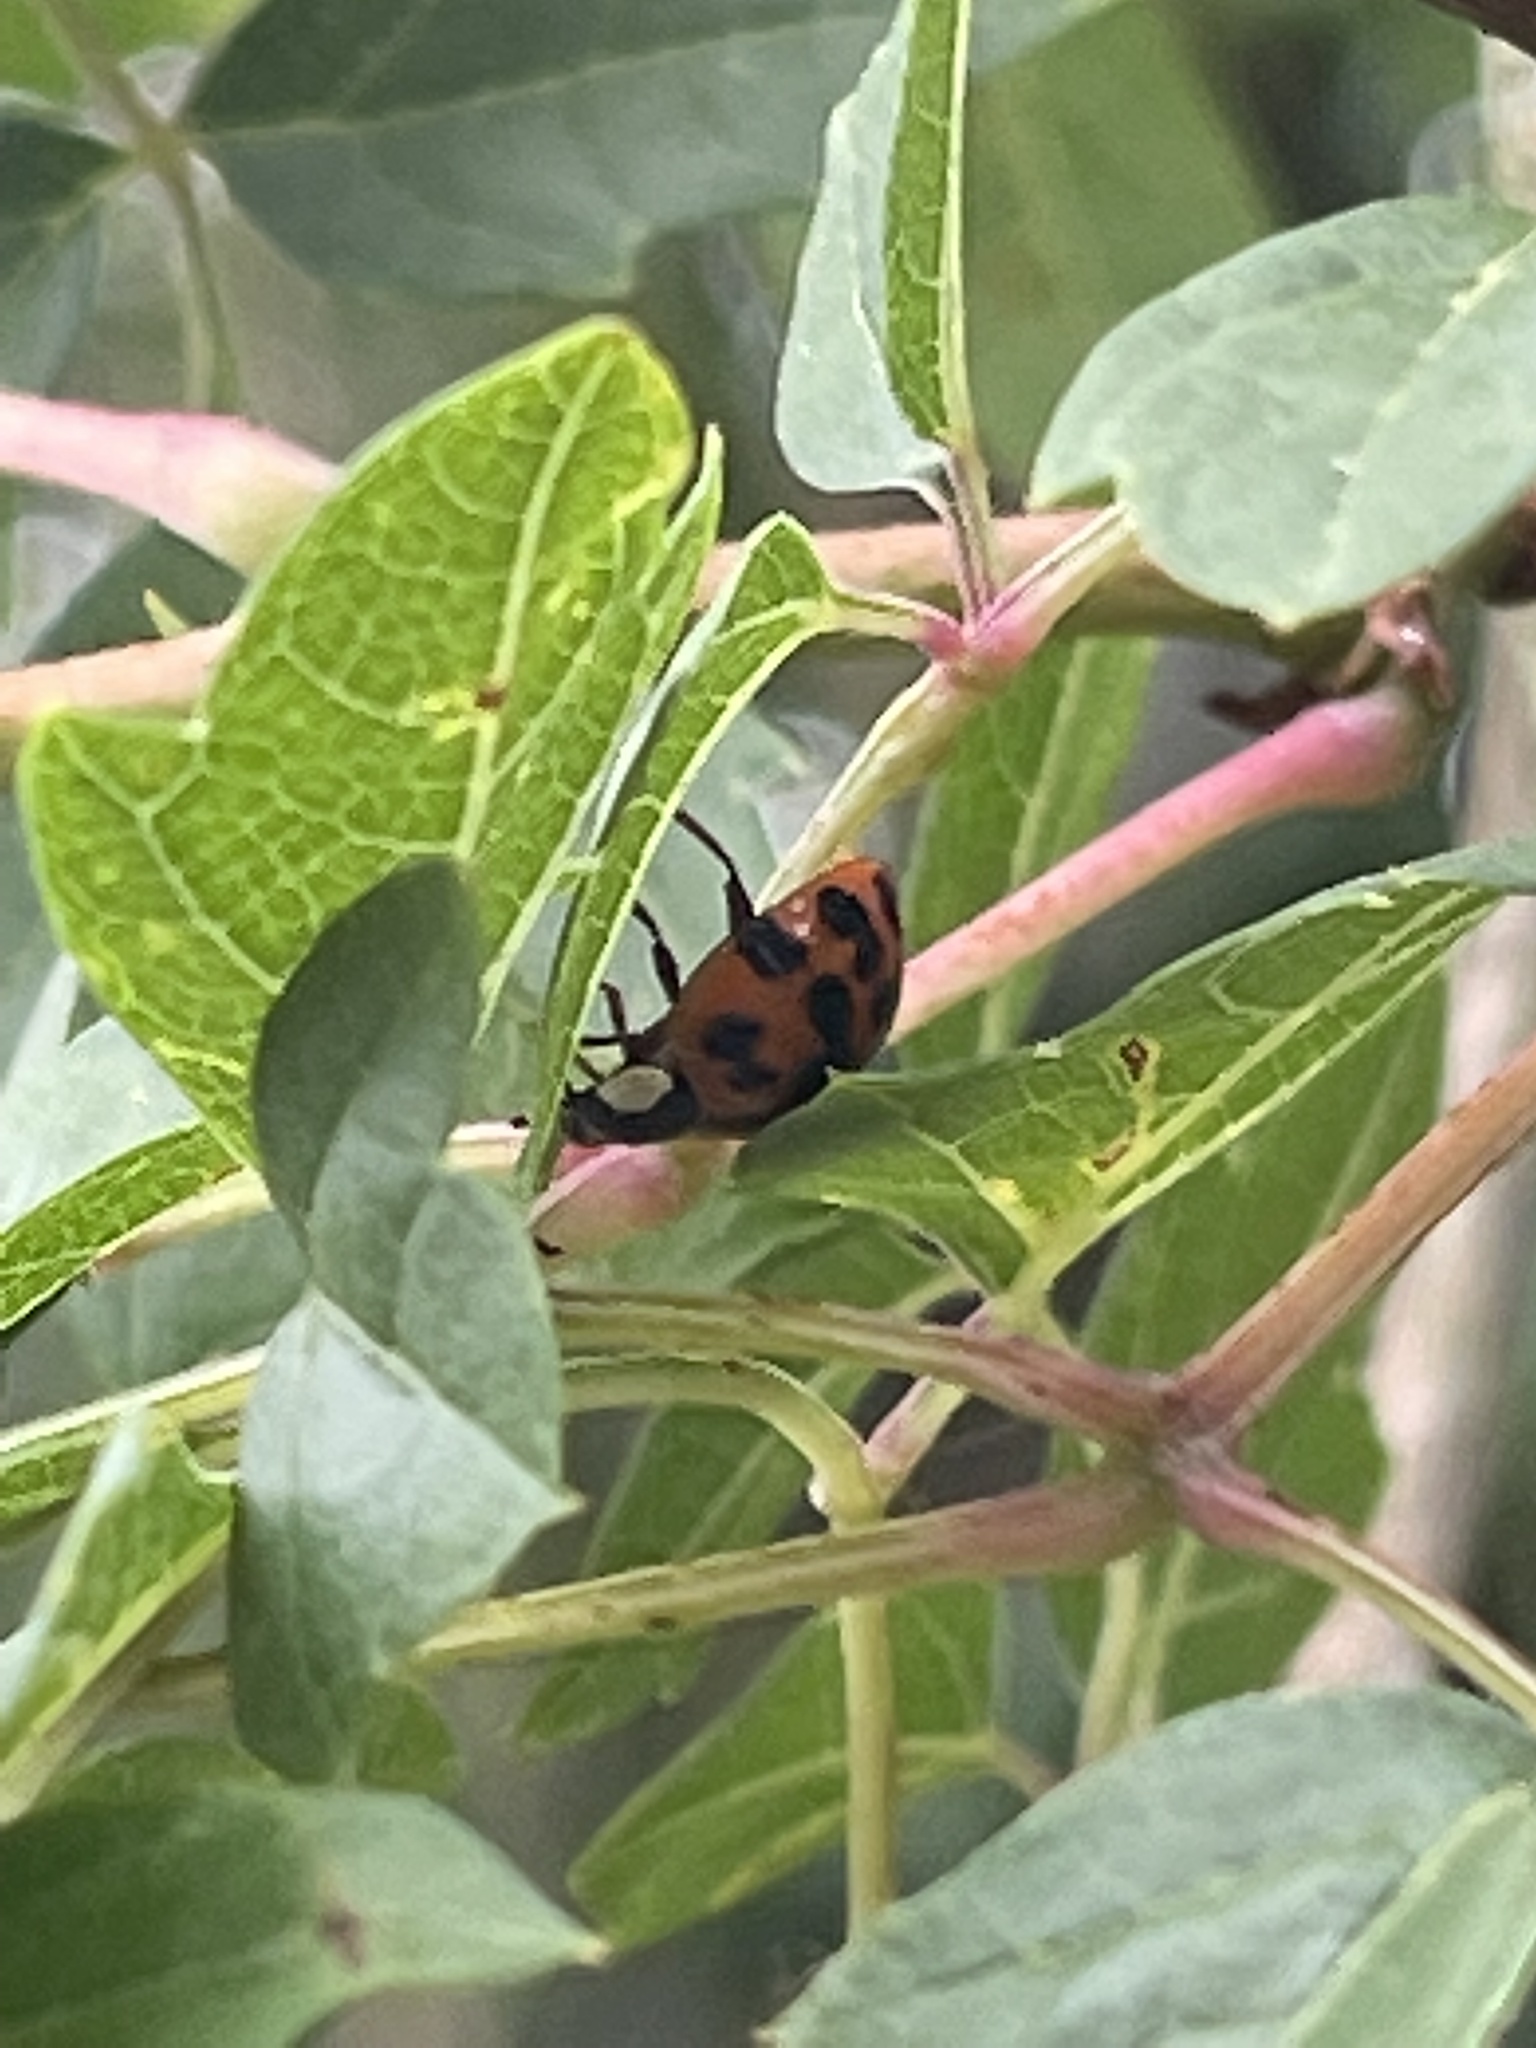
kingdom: Animalia
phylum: Arthropoda
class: Insecta
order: Coleoptera
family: Coccinellidae
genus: Harmonia
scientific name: Harmonia axyridis
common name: Harlequin ladybird
